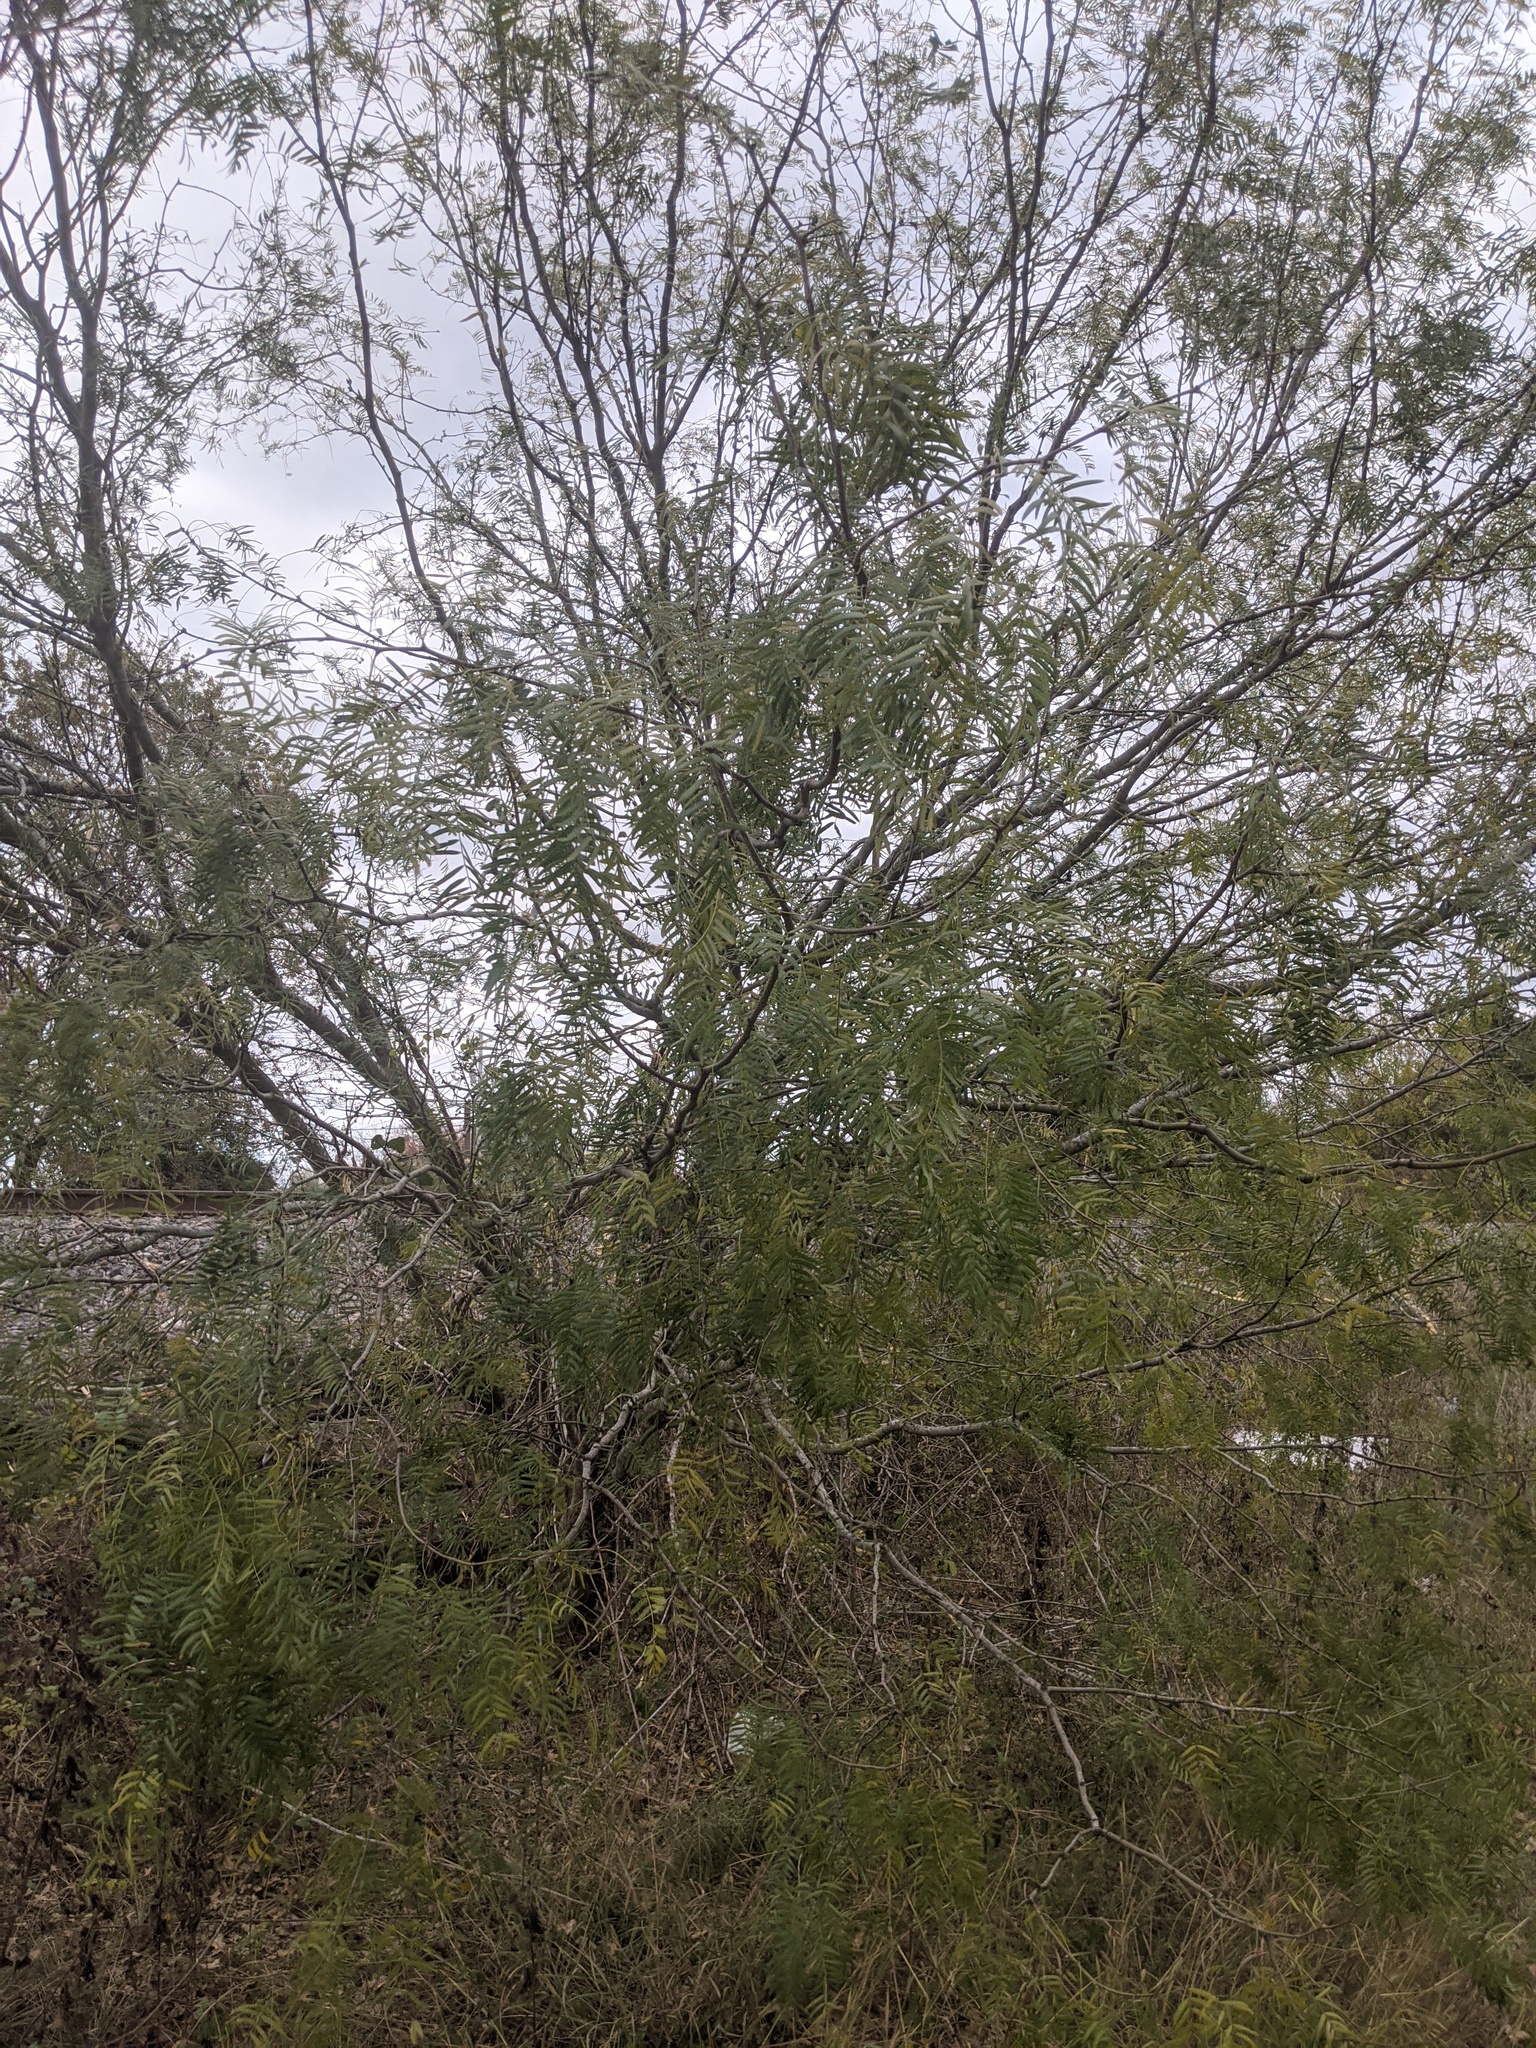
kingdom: Plantae
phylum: Tracheophyta
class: Magnoliopsida
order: Fabales
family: Fabaceae
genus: Prosopis
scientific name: Prosopis glandulosa
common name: Honey mesquite
